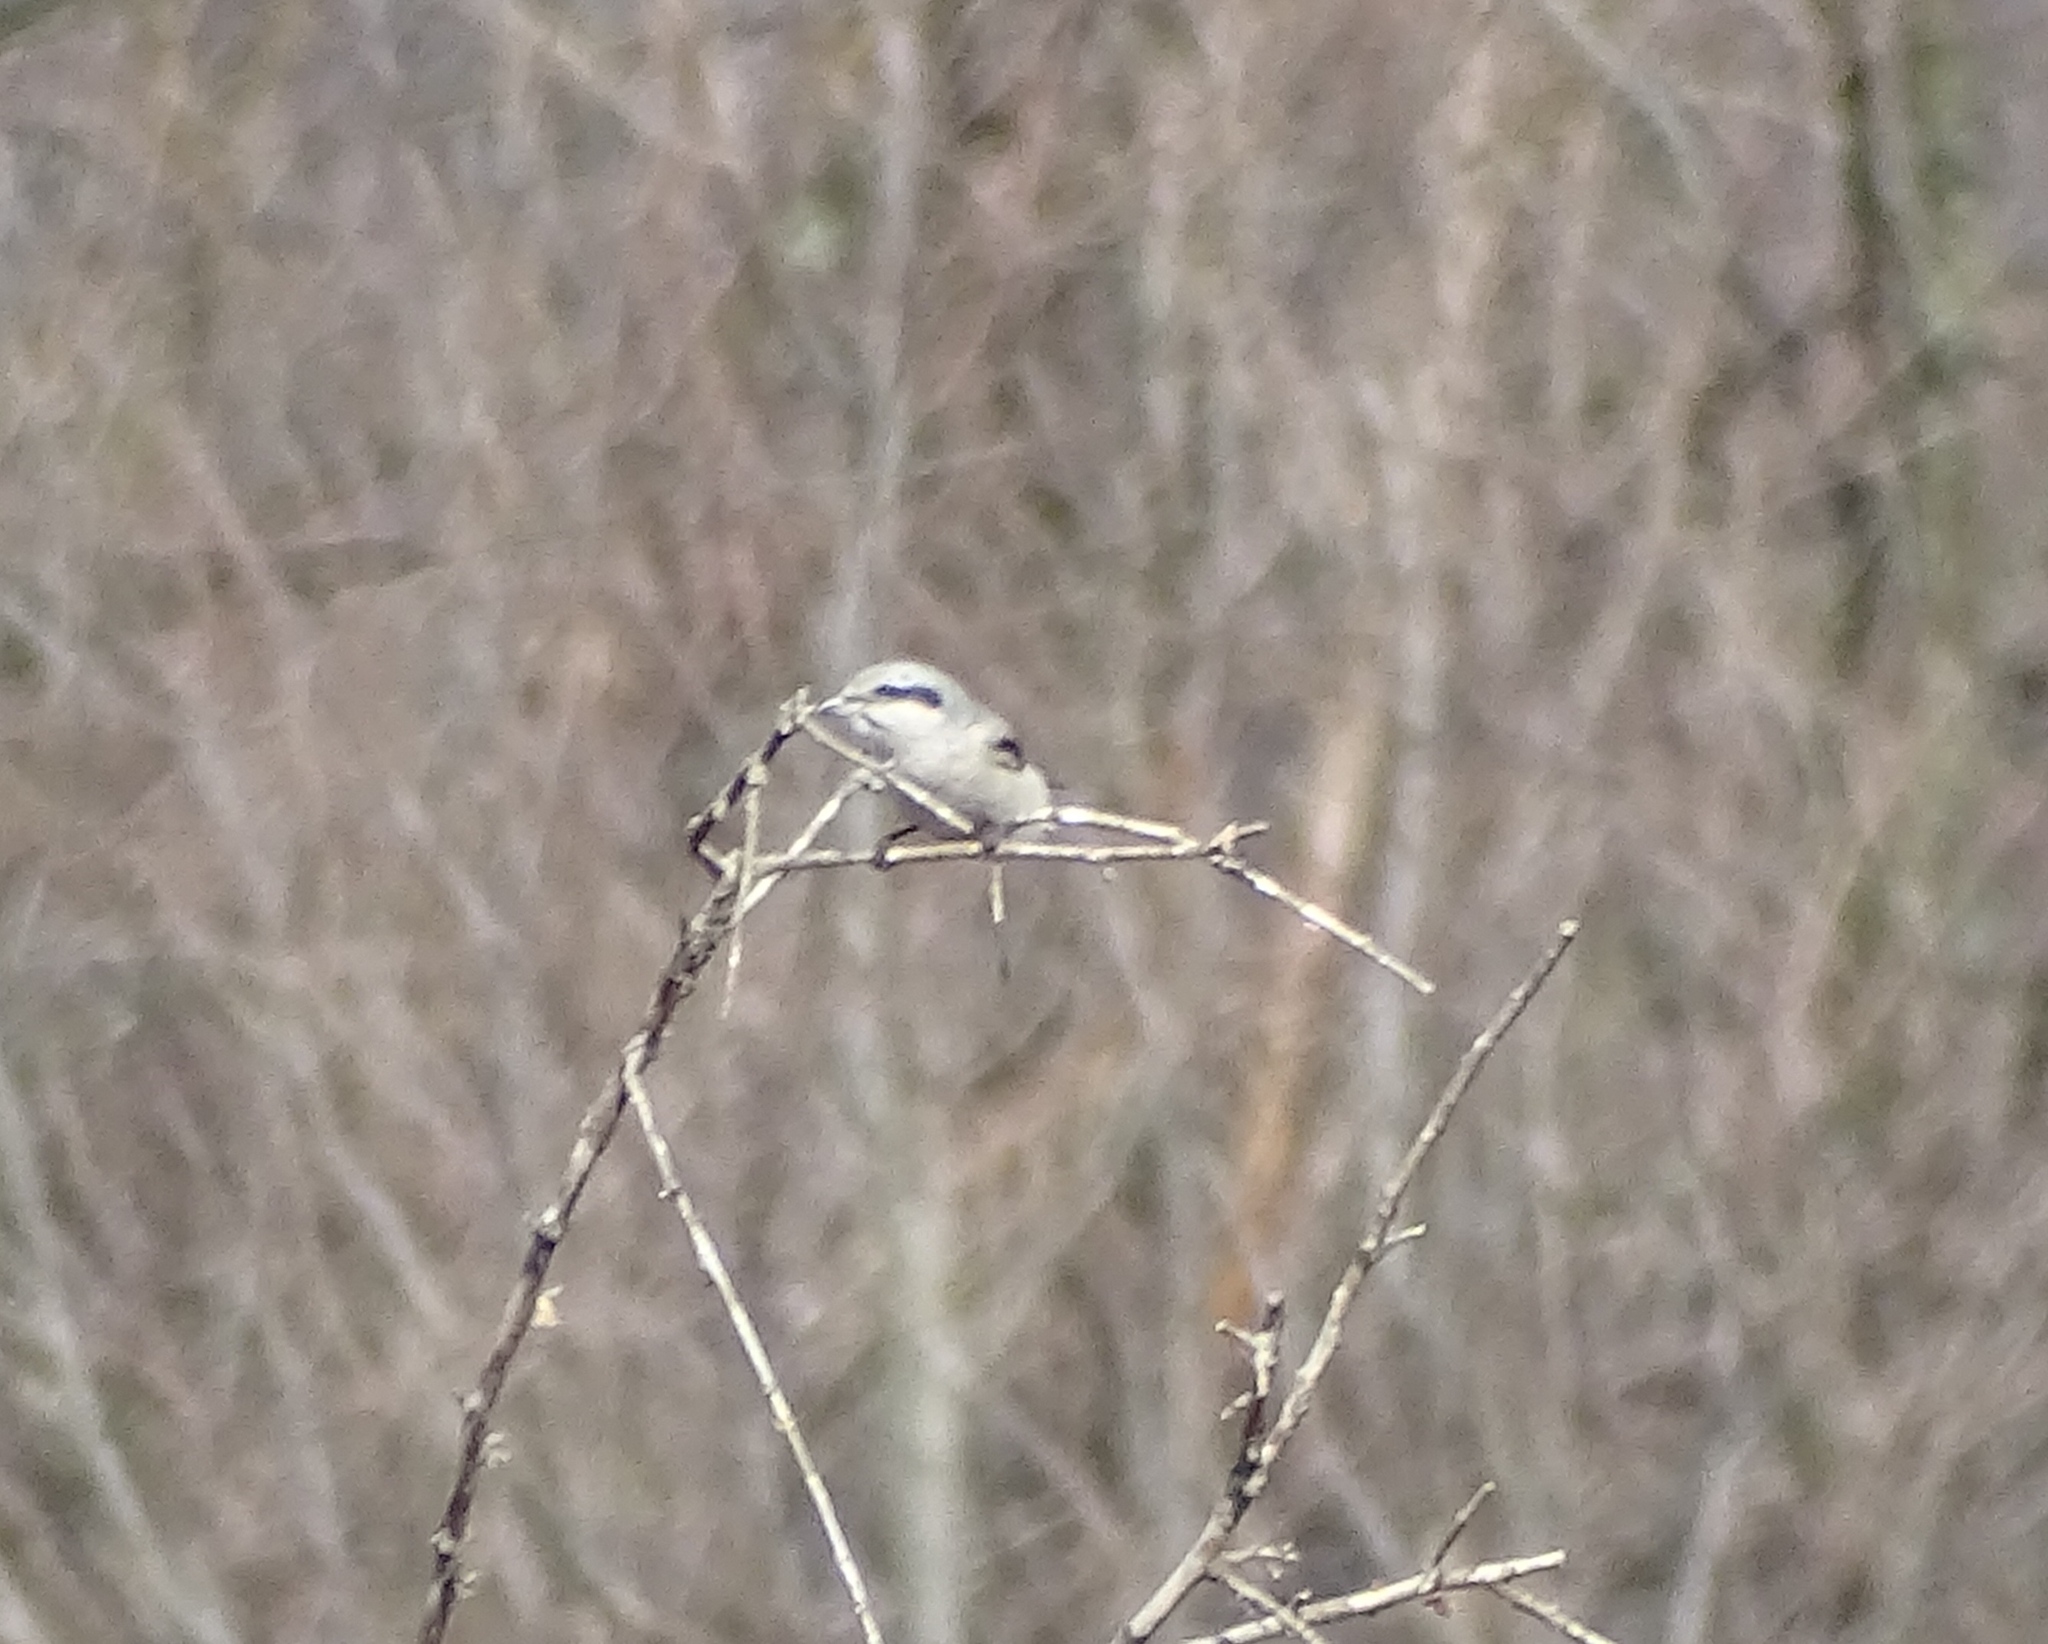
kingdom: Animalia
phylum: Chordata
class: Aves
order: Passeriformes
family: Laniidae
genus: Lanius
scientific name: Lanius borealis
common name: Northern shrike
